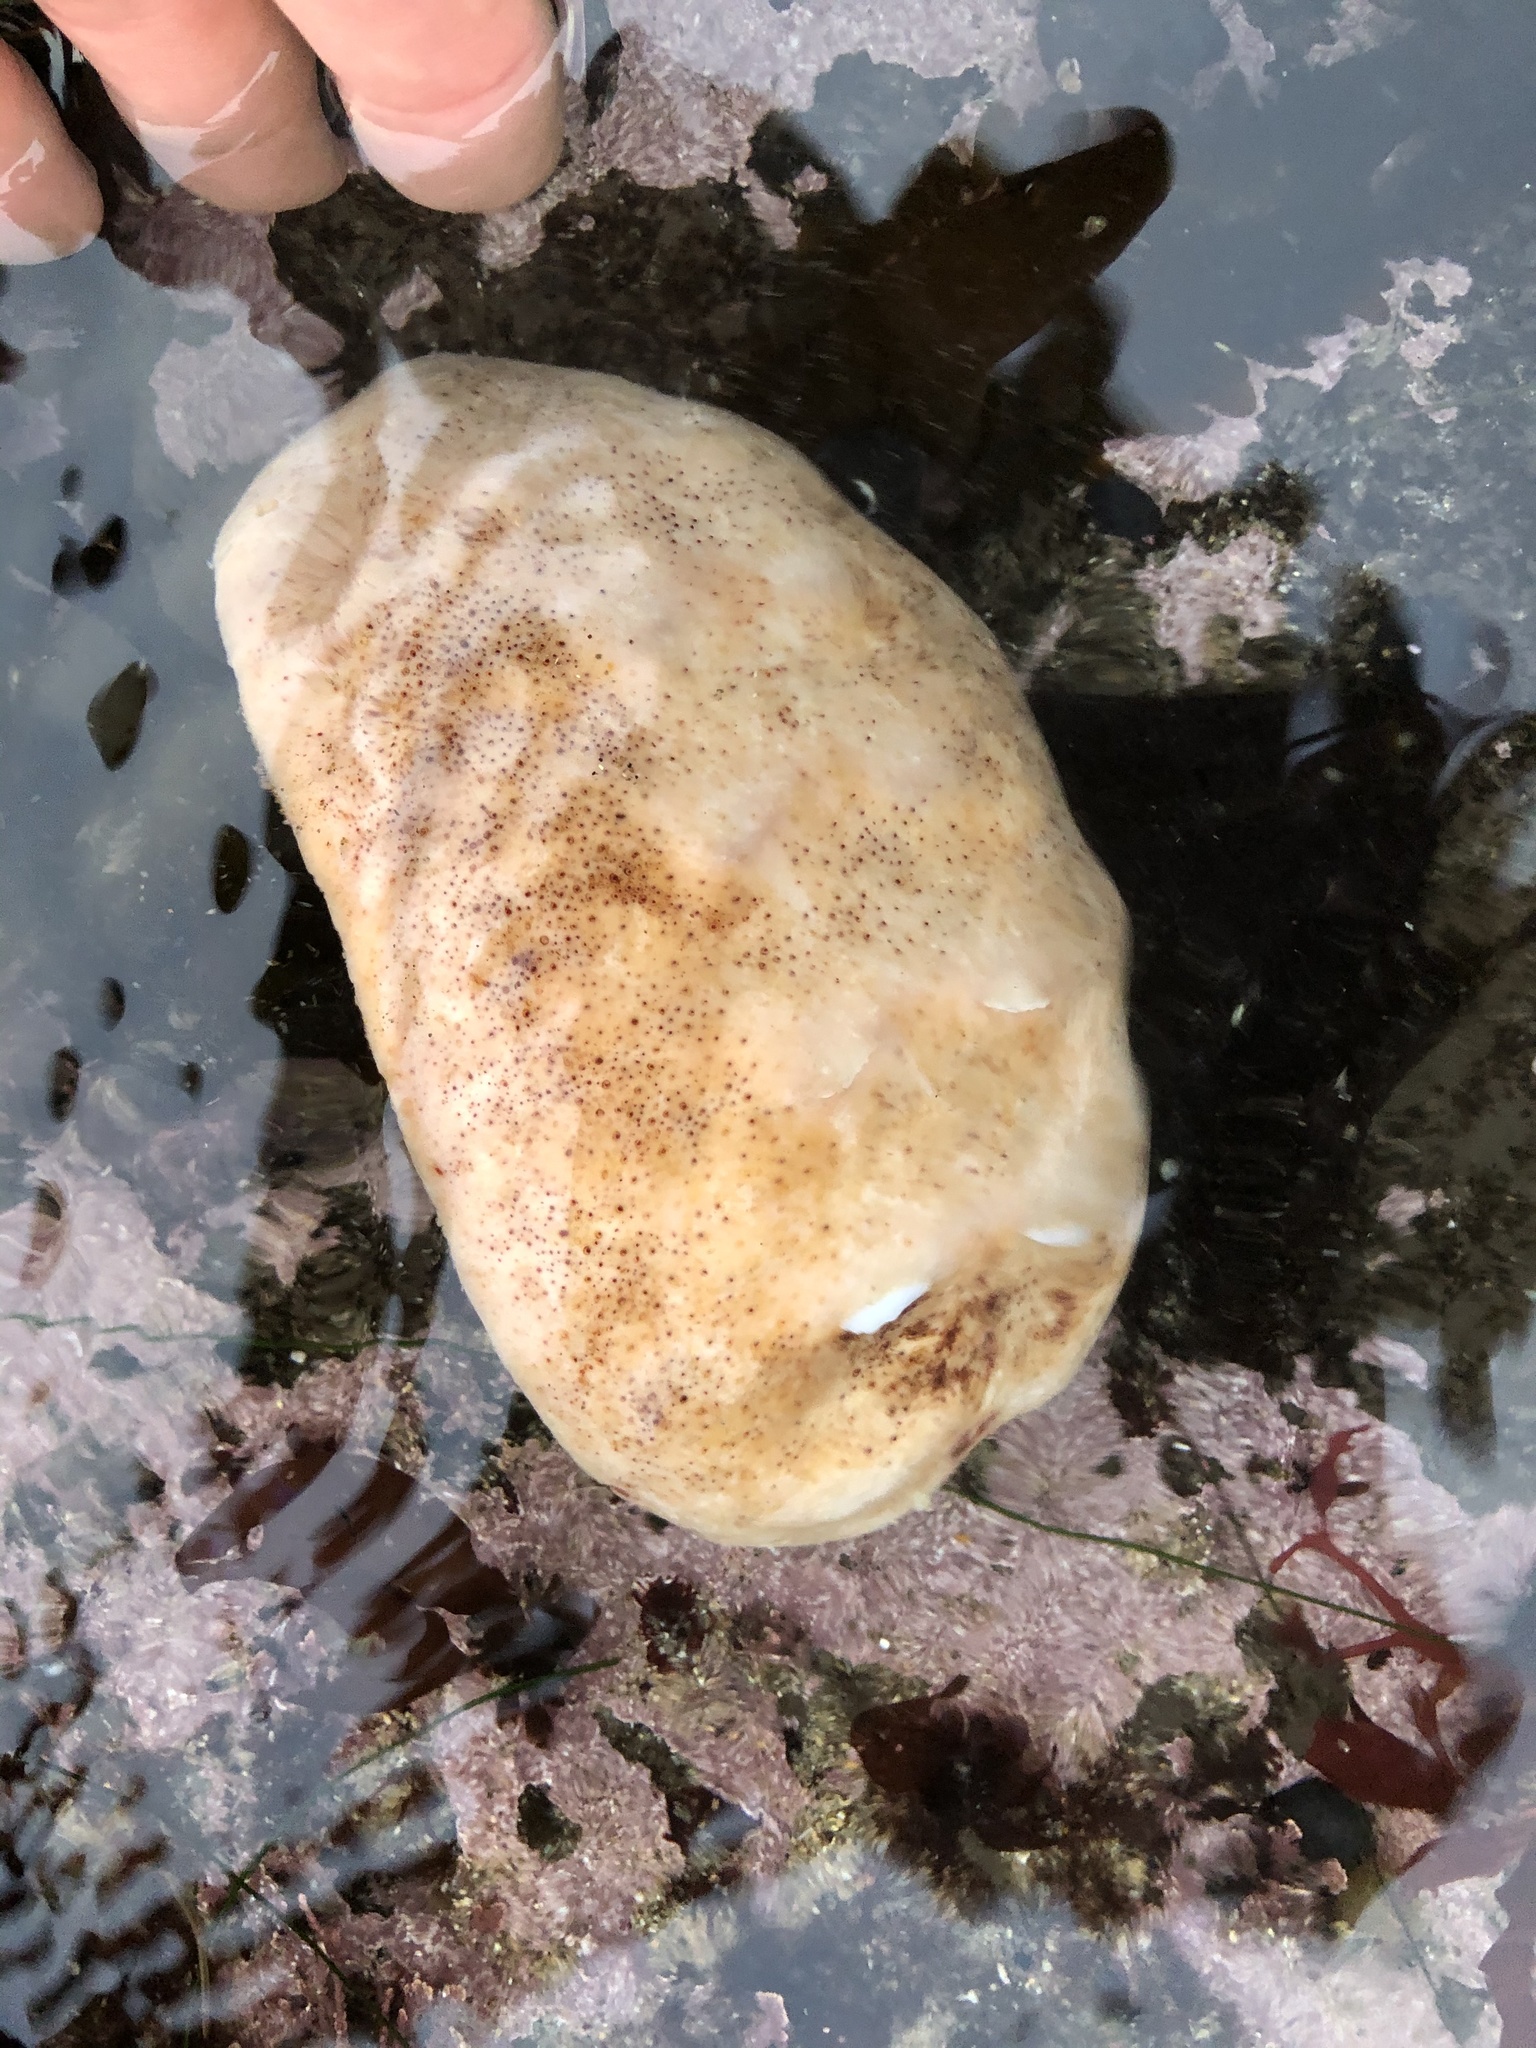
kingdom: Animalia
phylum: Mollusca
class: Polyplacophora
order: Chitonida
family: Acanthochitonidae
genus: Cryptochiton
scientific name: Cryptochiton stelleri
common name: Giant pacific chiton
